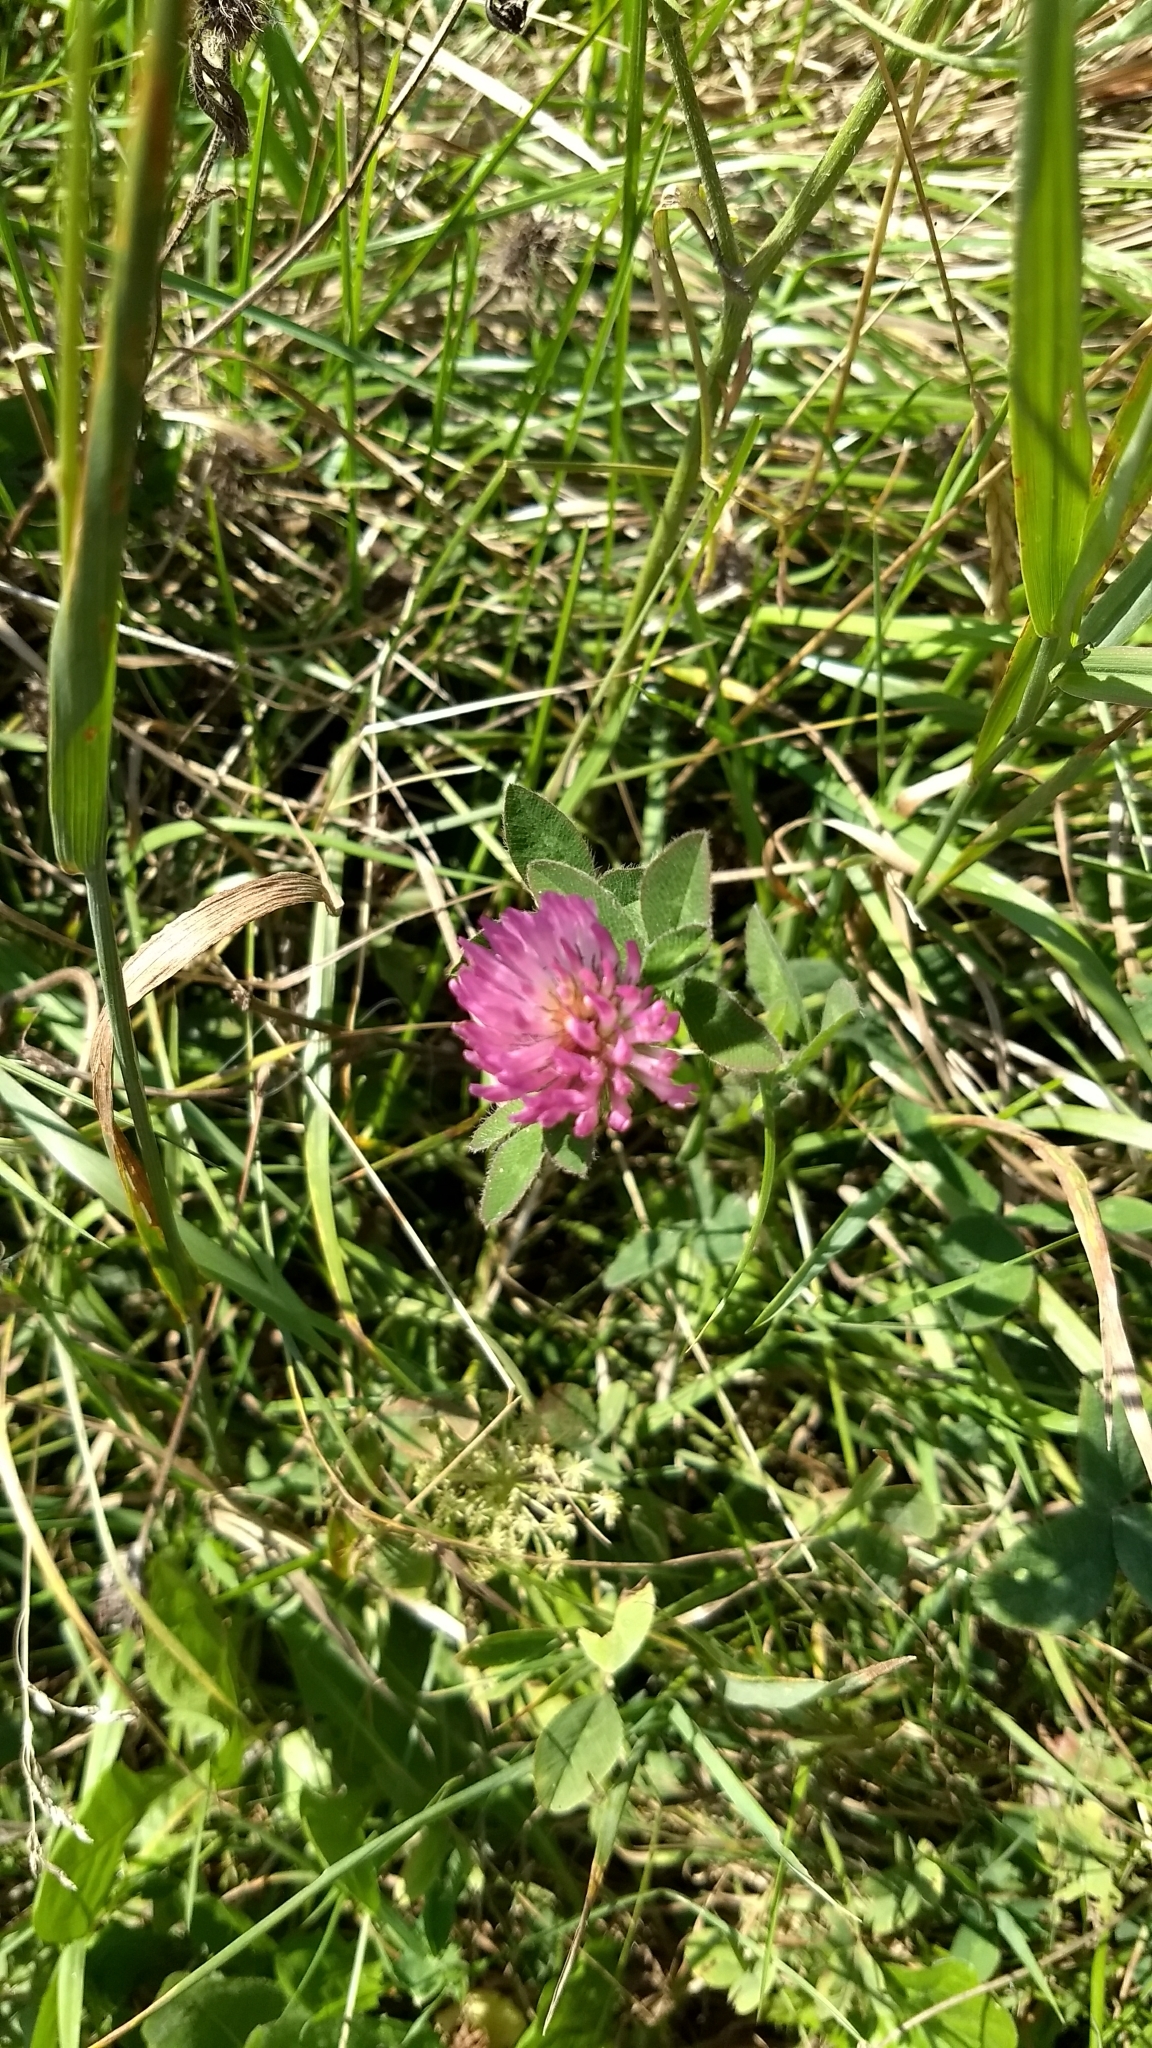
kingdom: Plantae
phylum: Tracheophyta
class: Magnoliopsida
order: Fabales
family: Fabaceae
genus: Trifolium
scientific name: Trifolium pratense
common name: Red clover
